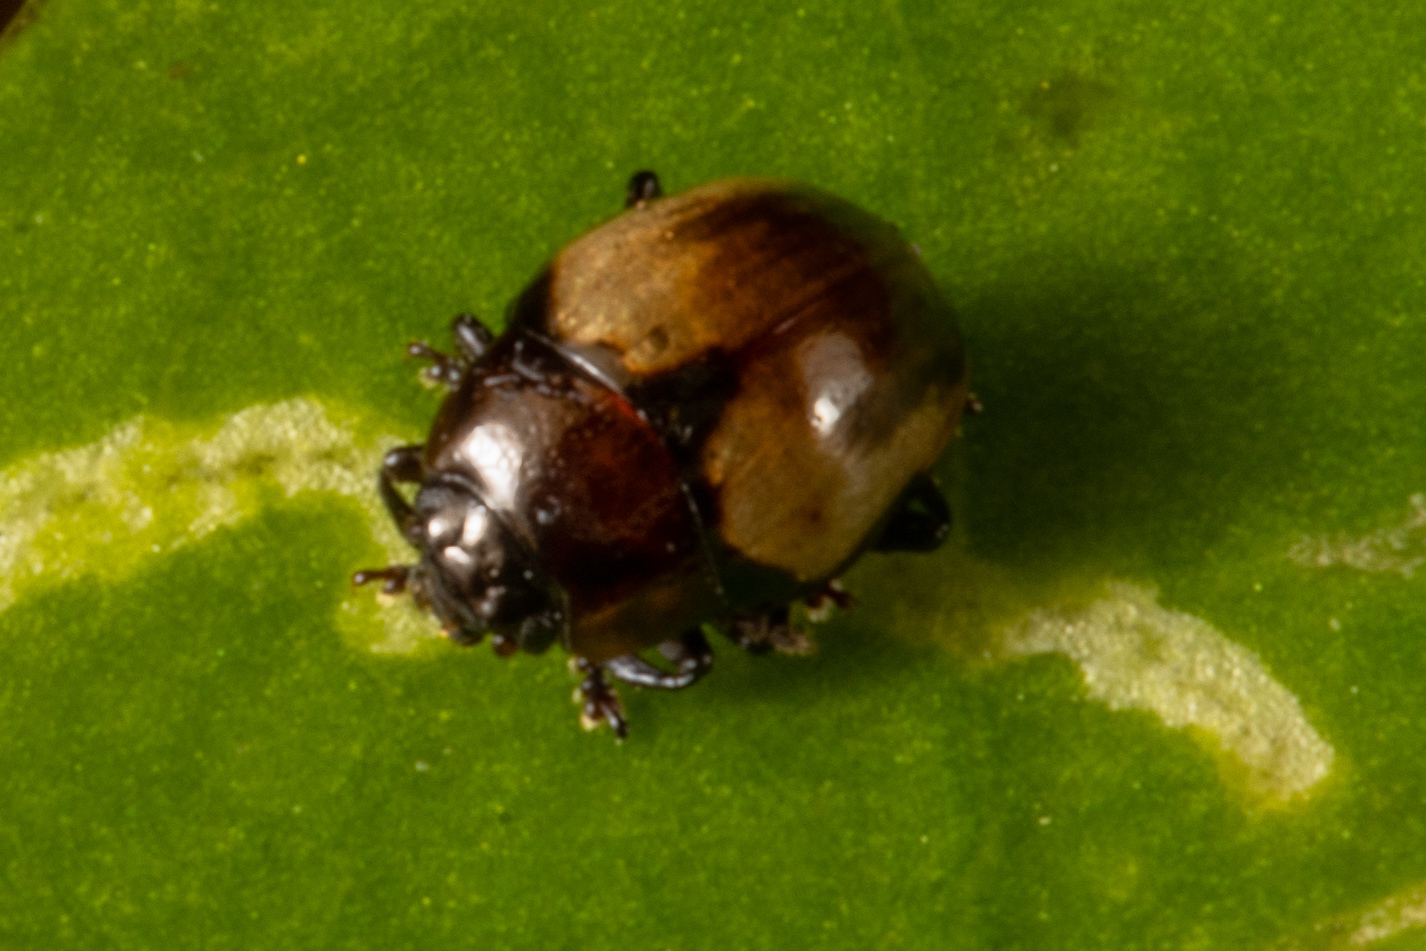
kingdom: Animalia
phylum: Arthropoda
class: Insecta
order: Coleoptera
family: Chrysomelidae
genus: Caccomolpus
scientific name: Caccomolpus ornatus
